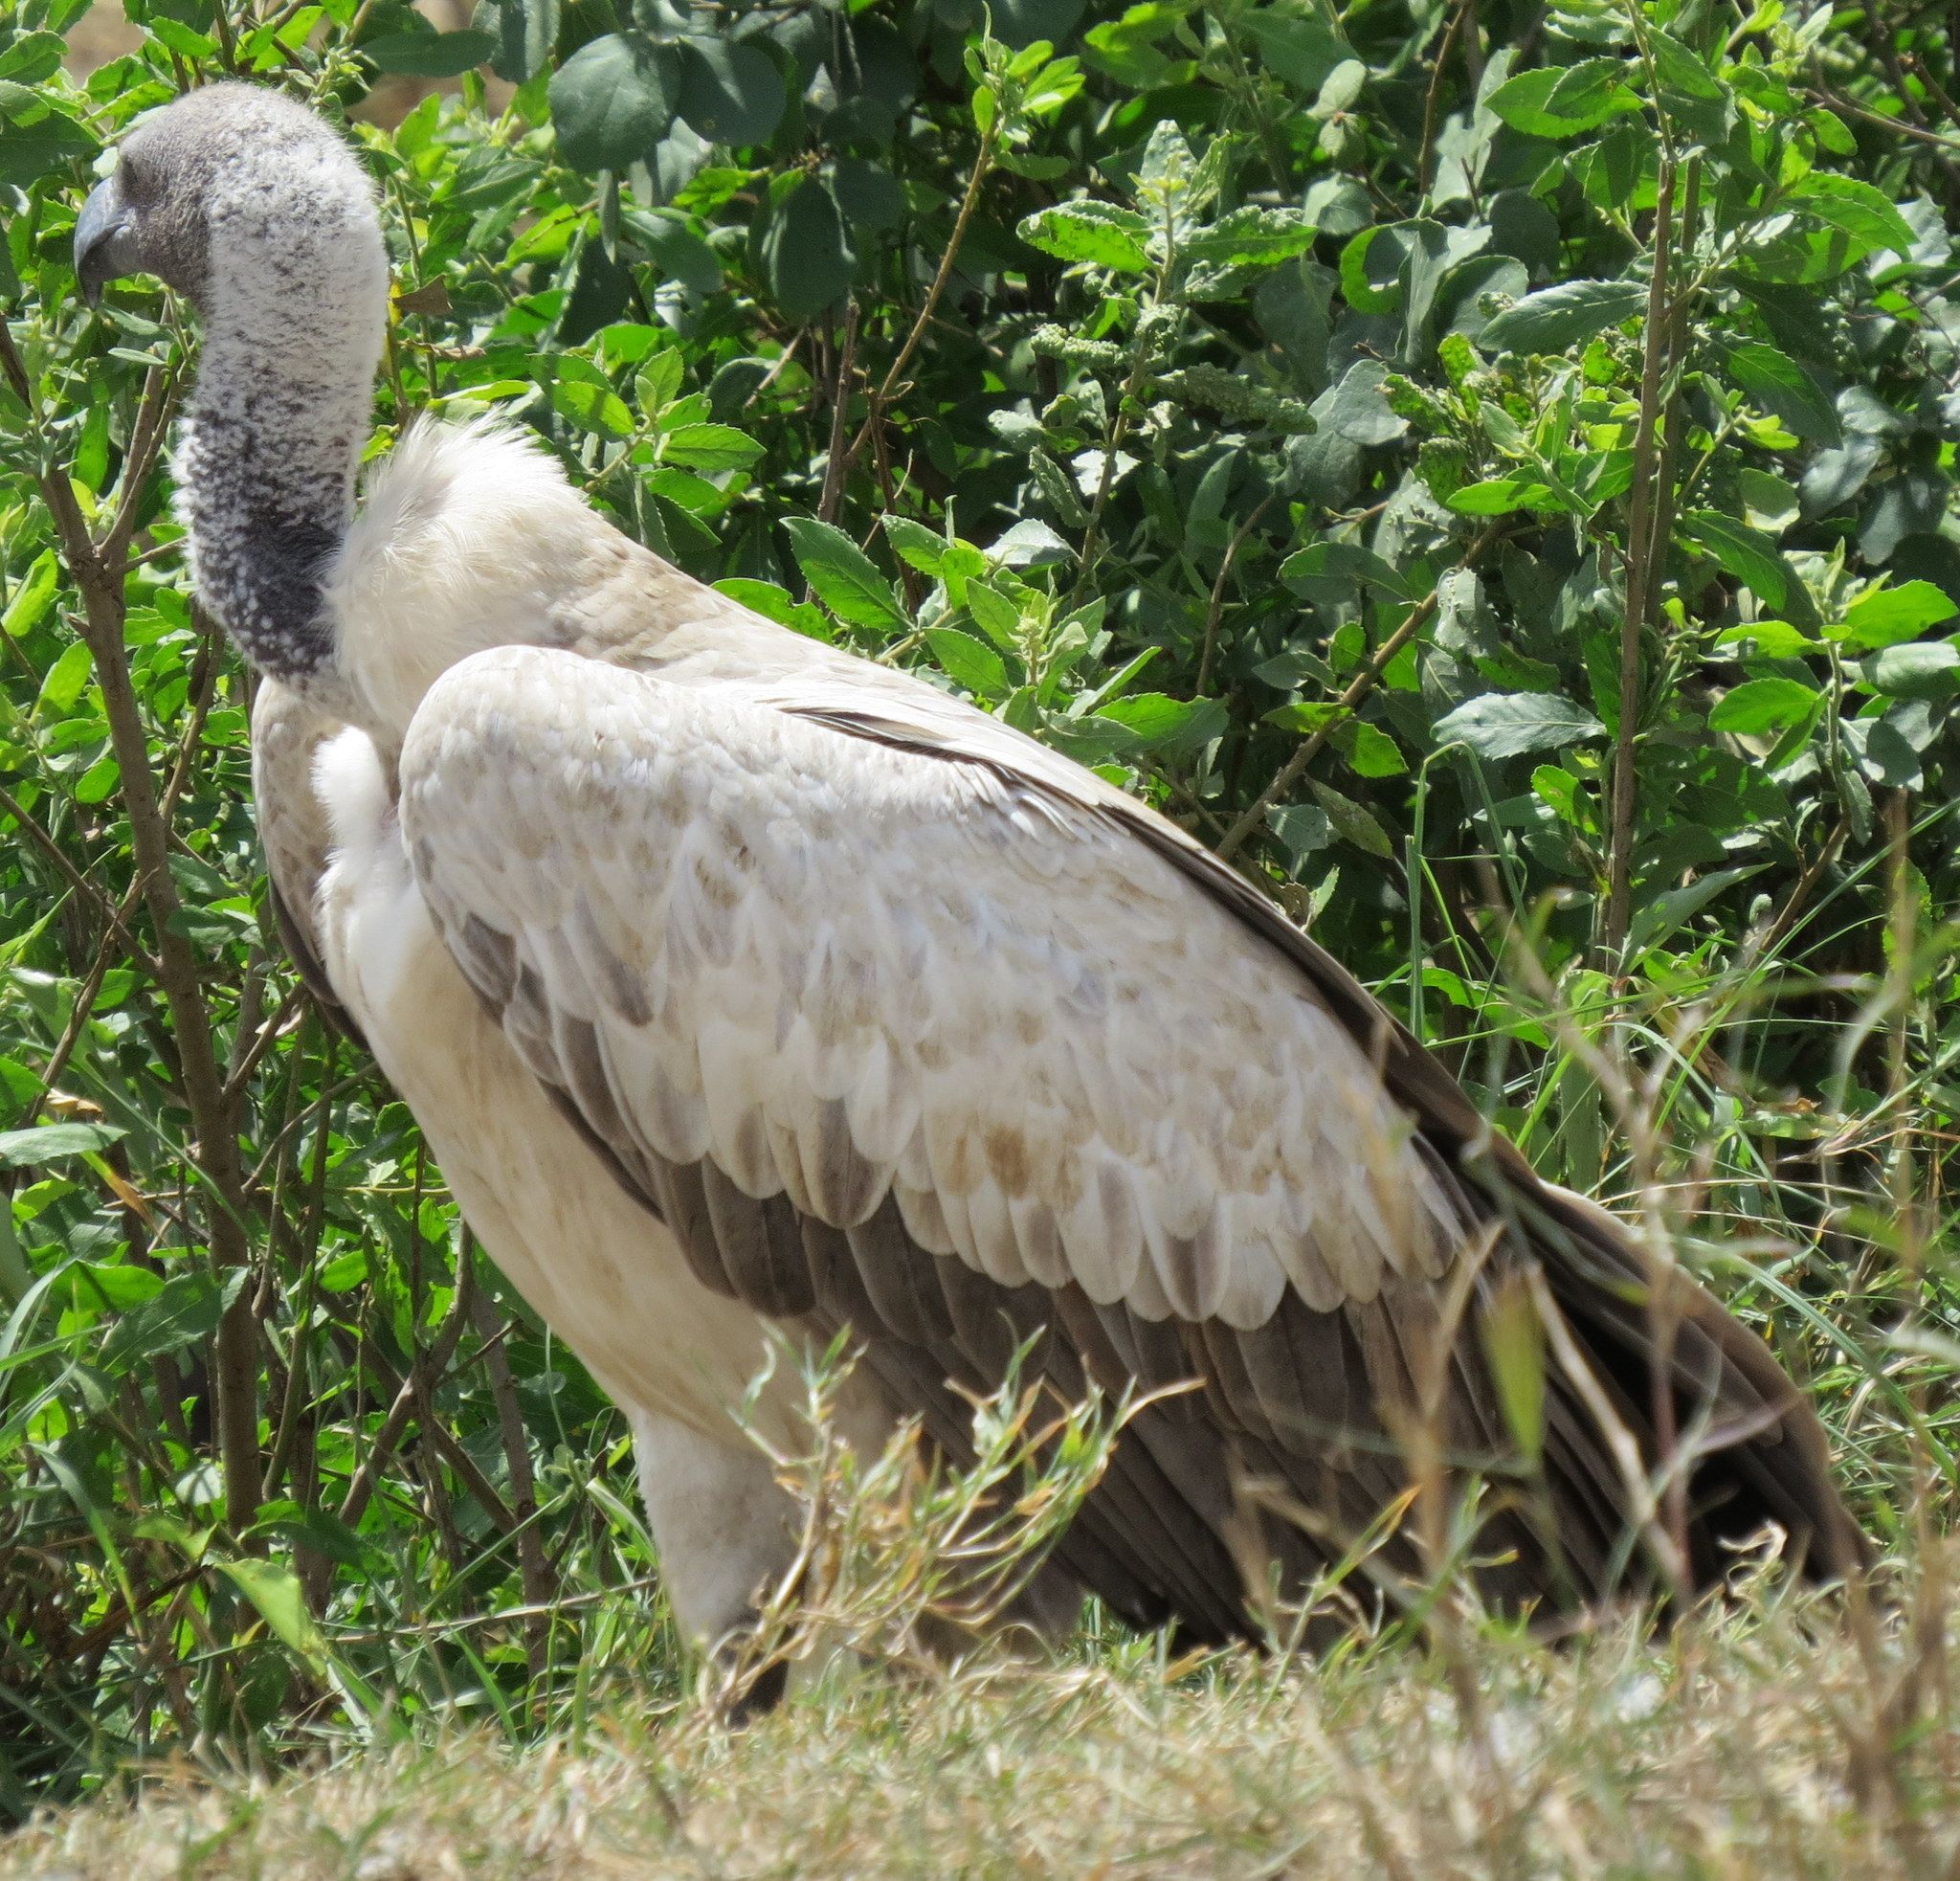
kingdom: Animalia
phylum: Chordata
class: Aves
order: Accipitriformes
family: Accipitridae
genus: Gyps
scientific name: Gyps africanus
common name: White-backed vulture
